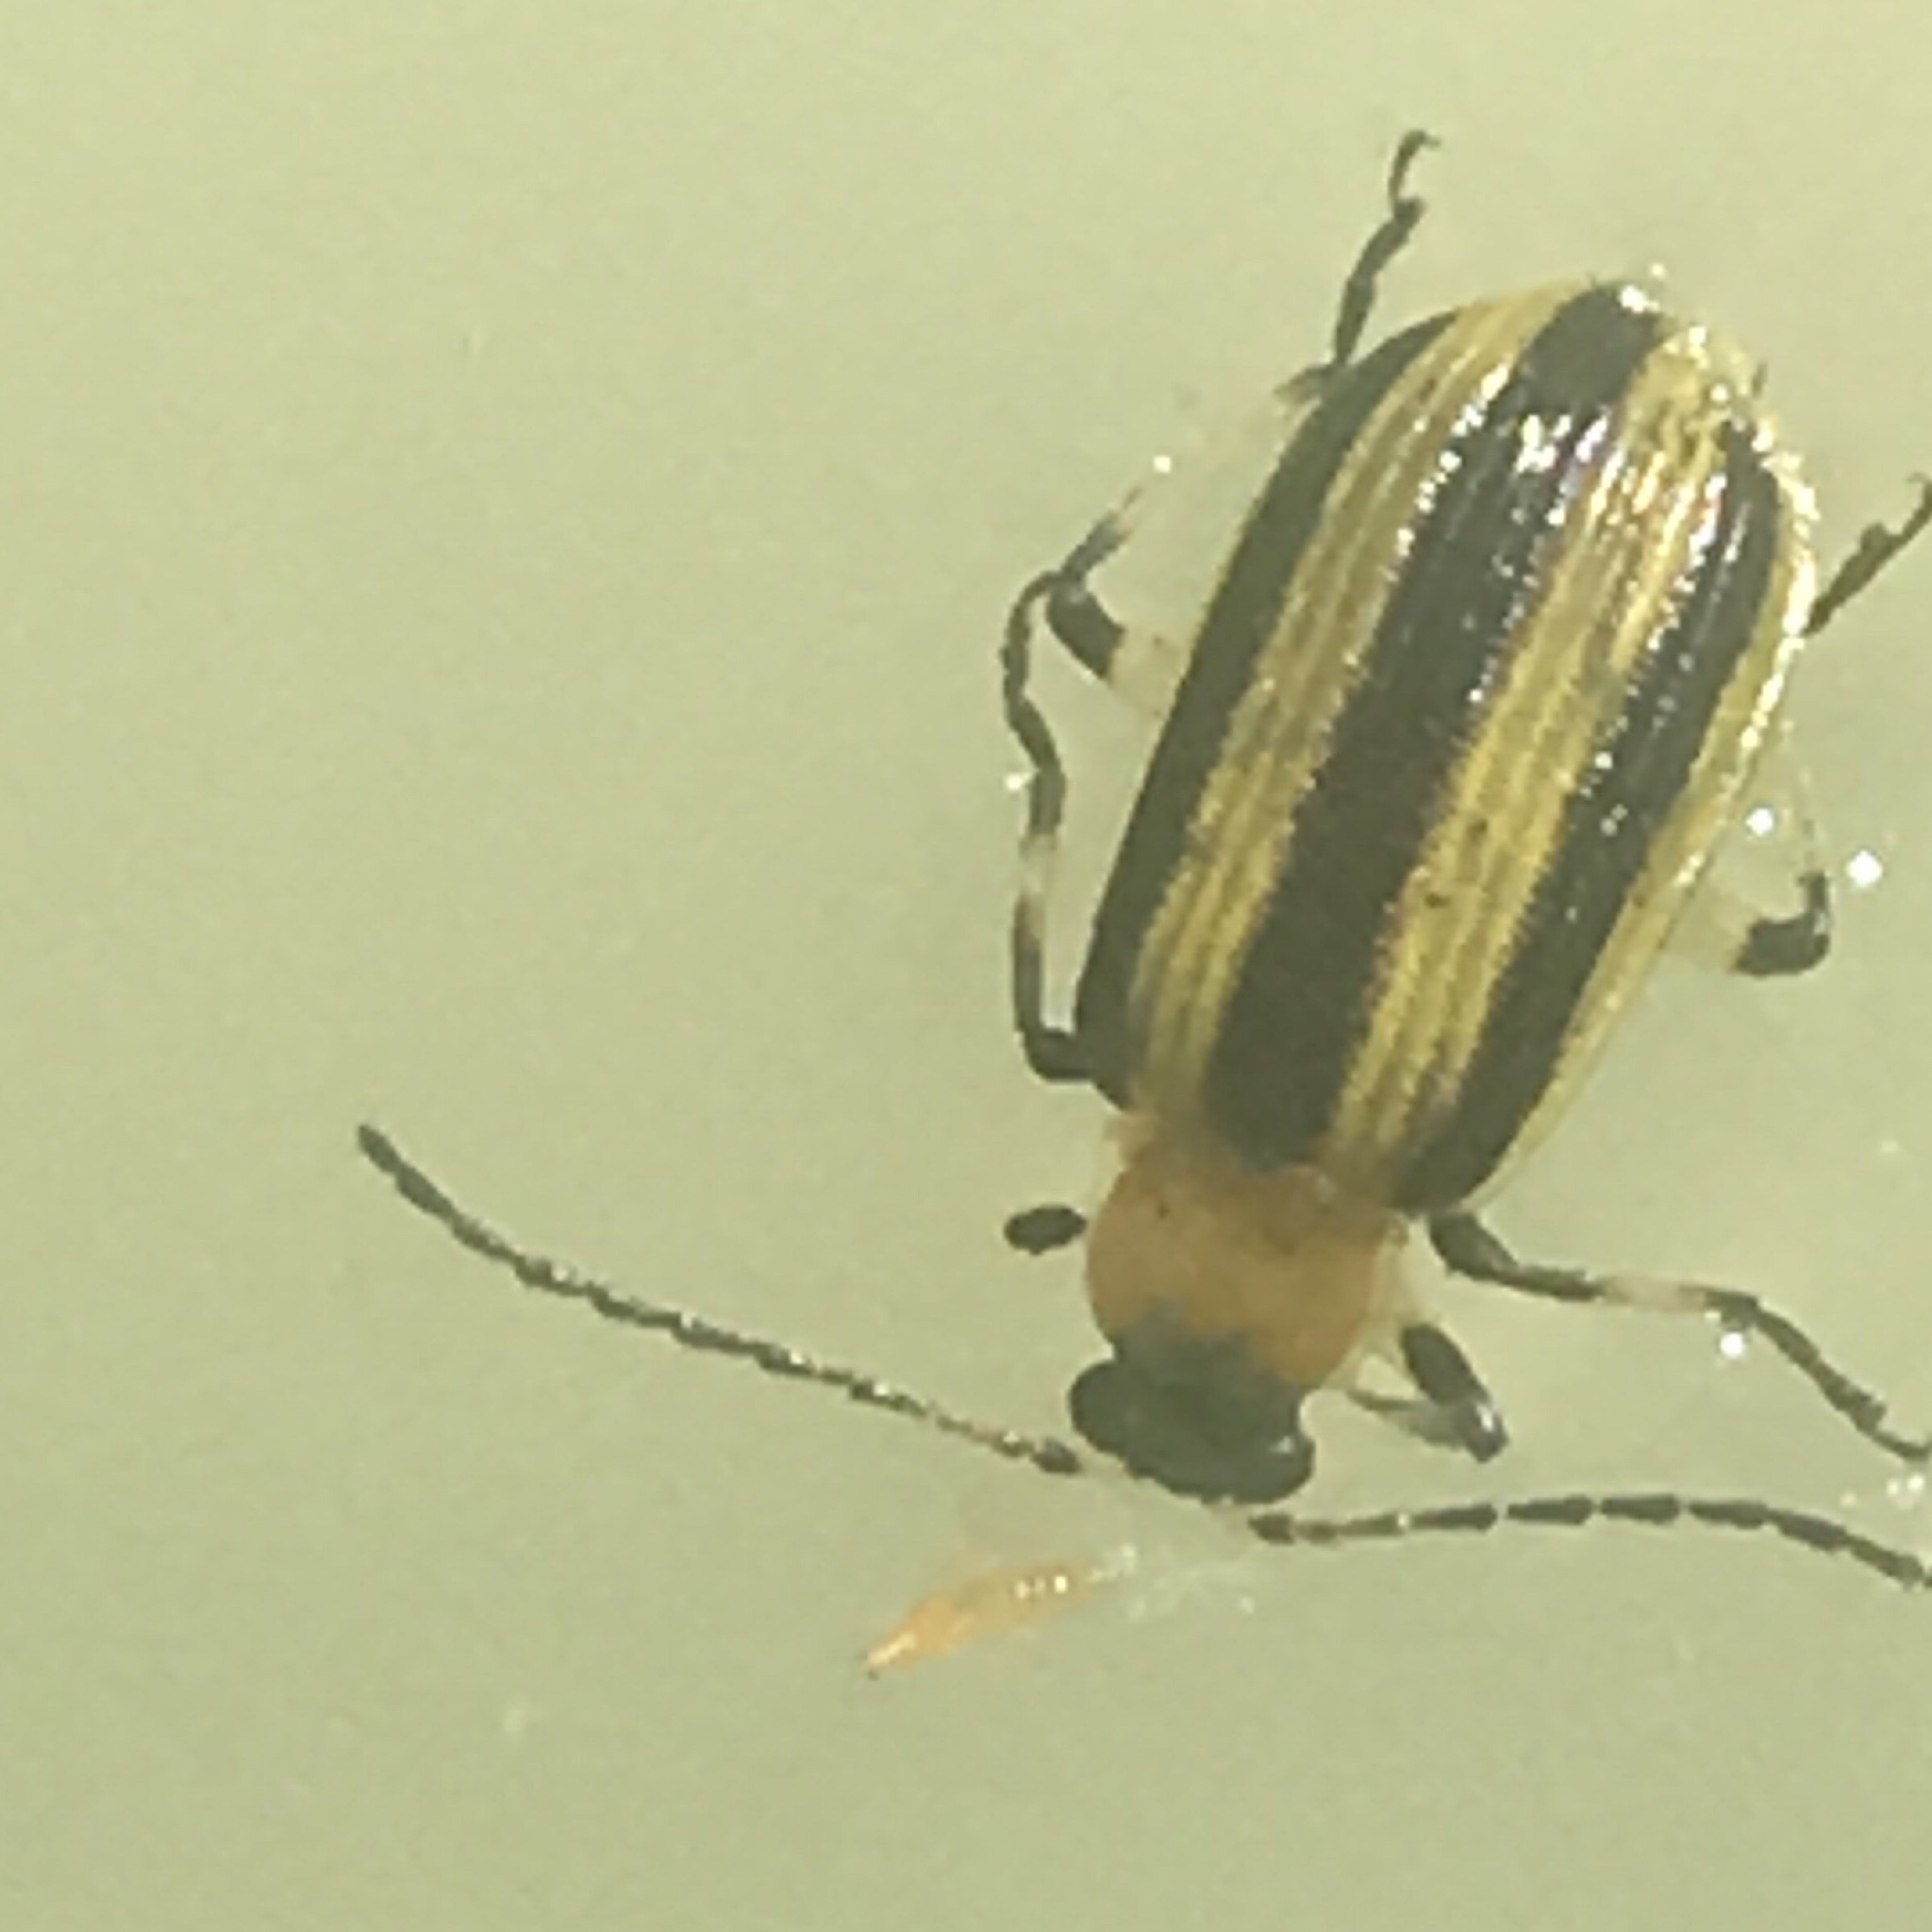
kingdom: Animalia
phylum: Arthropoda
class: Insecta
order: Coleoptera
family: Chrysomelidae
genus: Acalymma
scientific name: Acalymma vittatum
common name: Striped cucumber beetle
